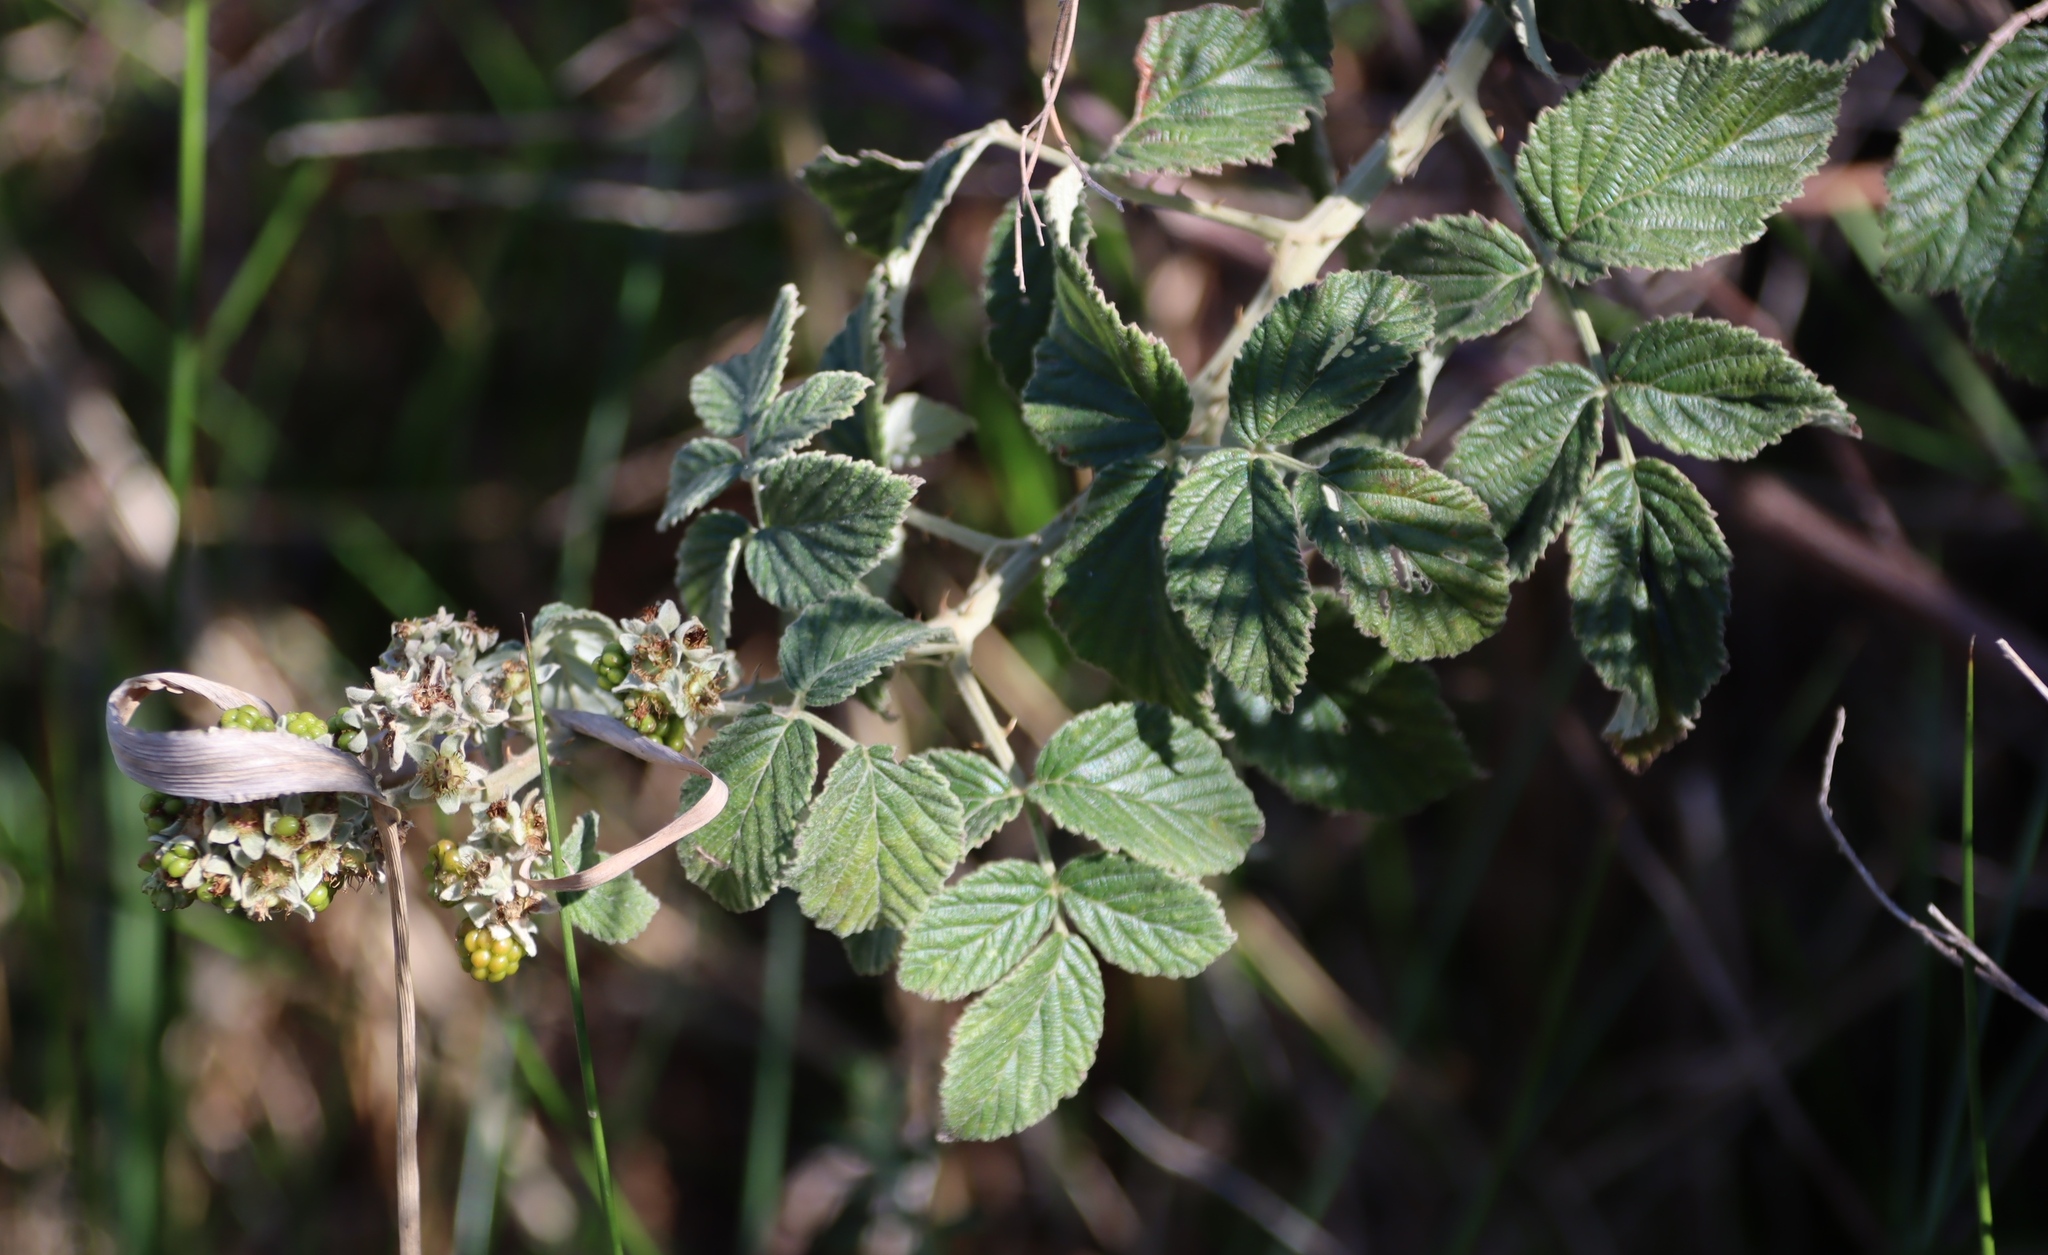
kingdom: Plantae
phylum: Tracheophyta
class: Magnoliopsida
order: Rosales
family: Rosaceae
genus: Rubus
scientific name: Rubus rigidus
